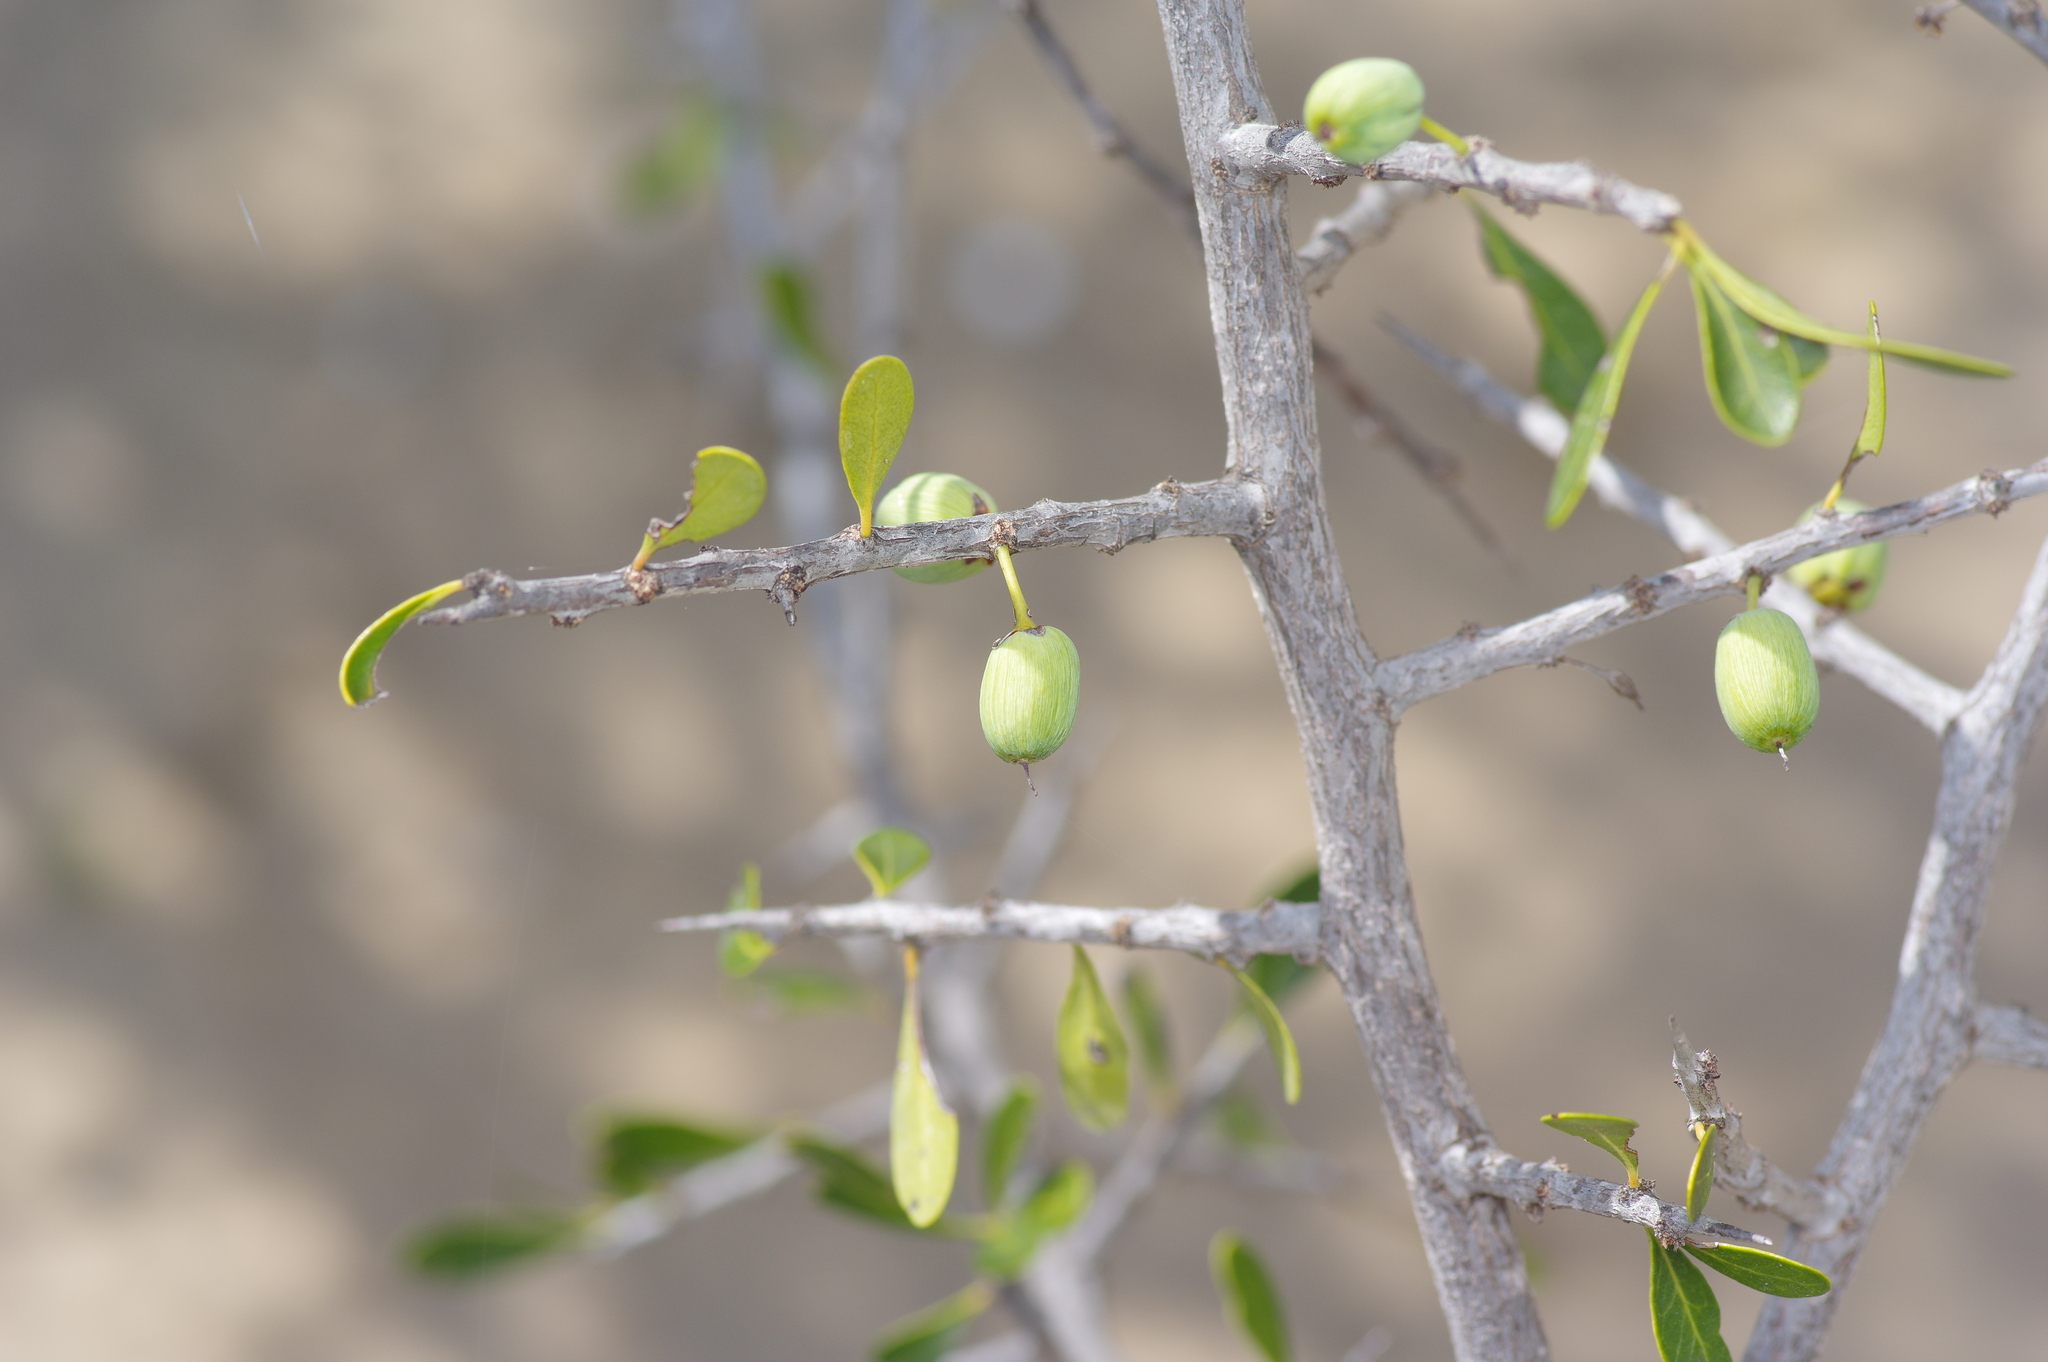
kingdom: Plantae
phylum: Tracheophyta
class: Magnoliopsida
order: Ericales
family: Sapotaceae
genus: Sideroxylon
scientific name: Sideroxylon celastrinum
